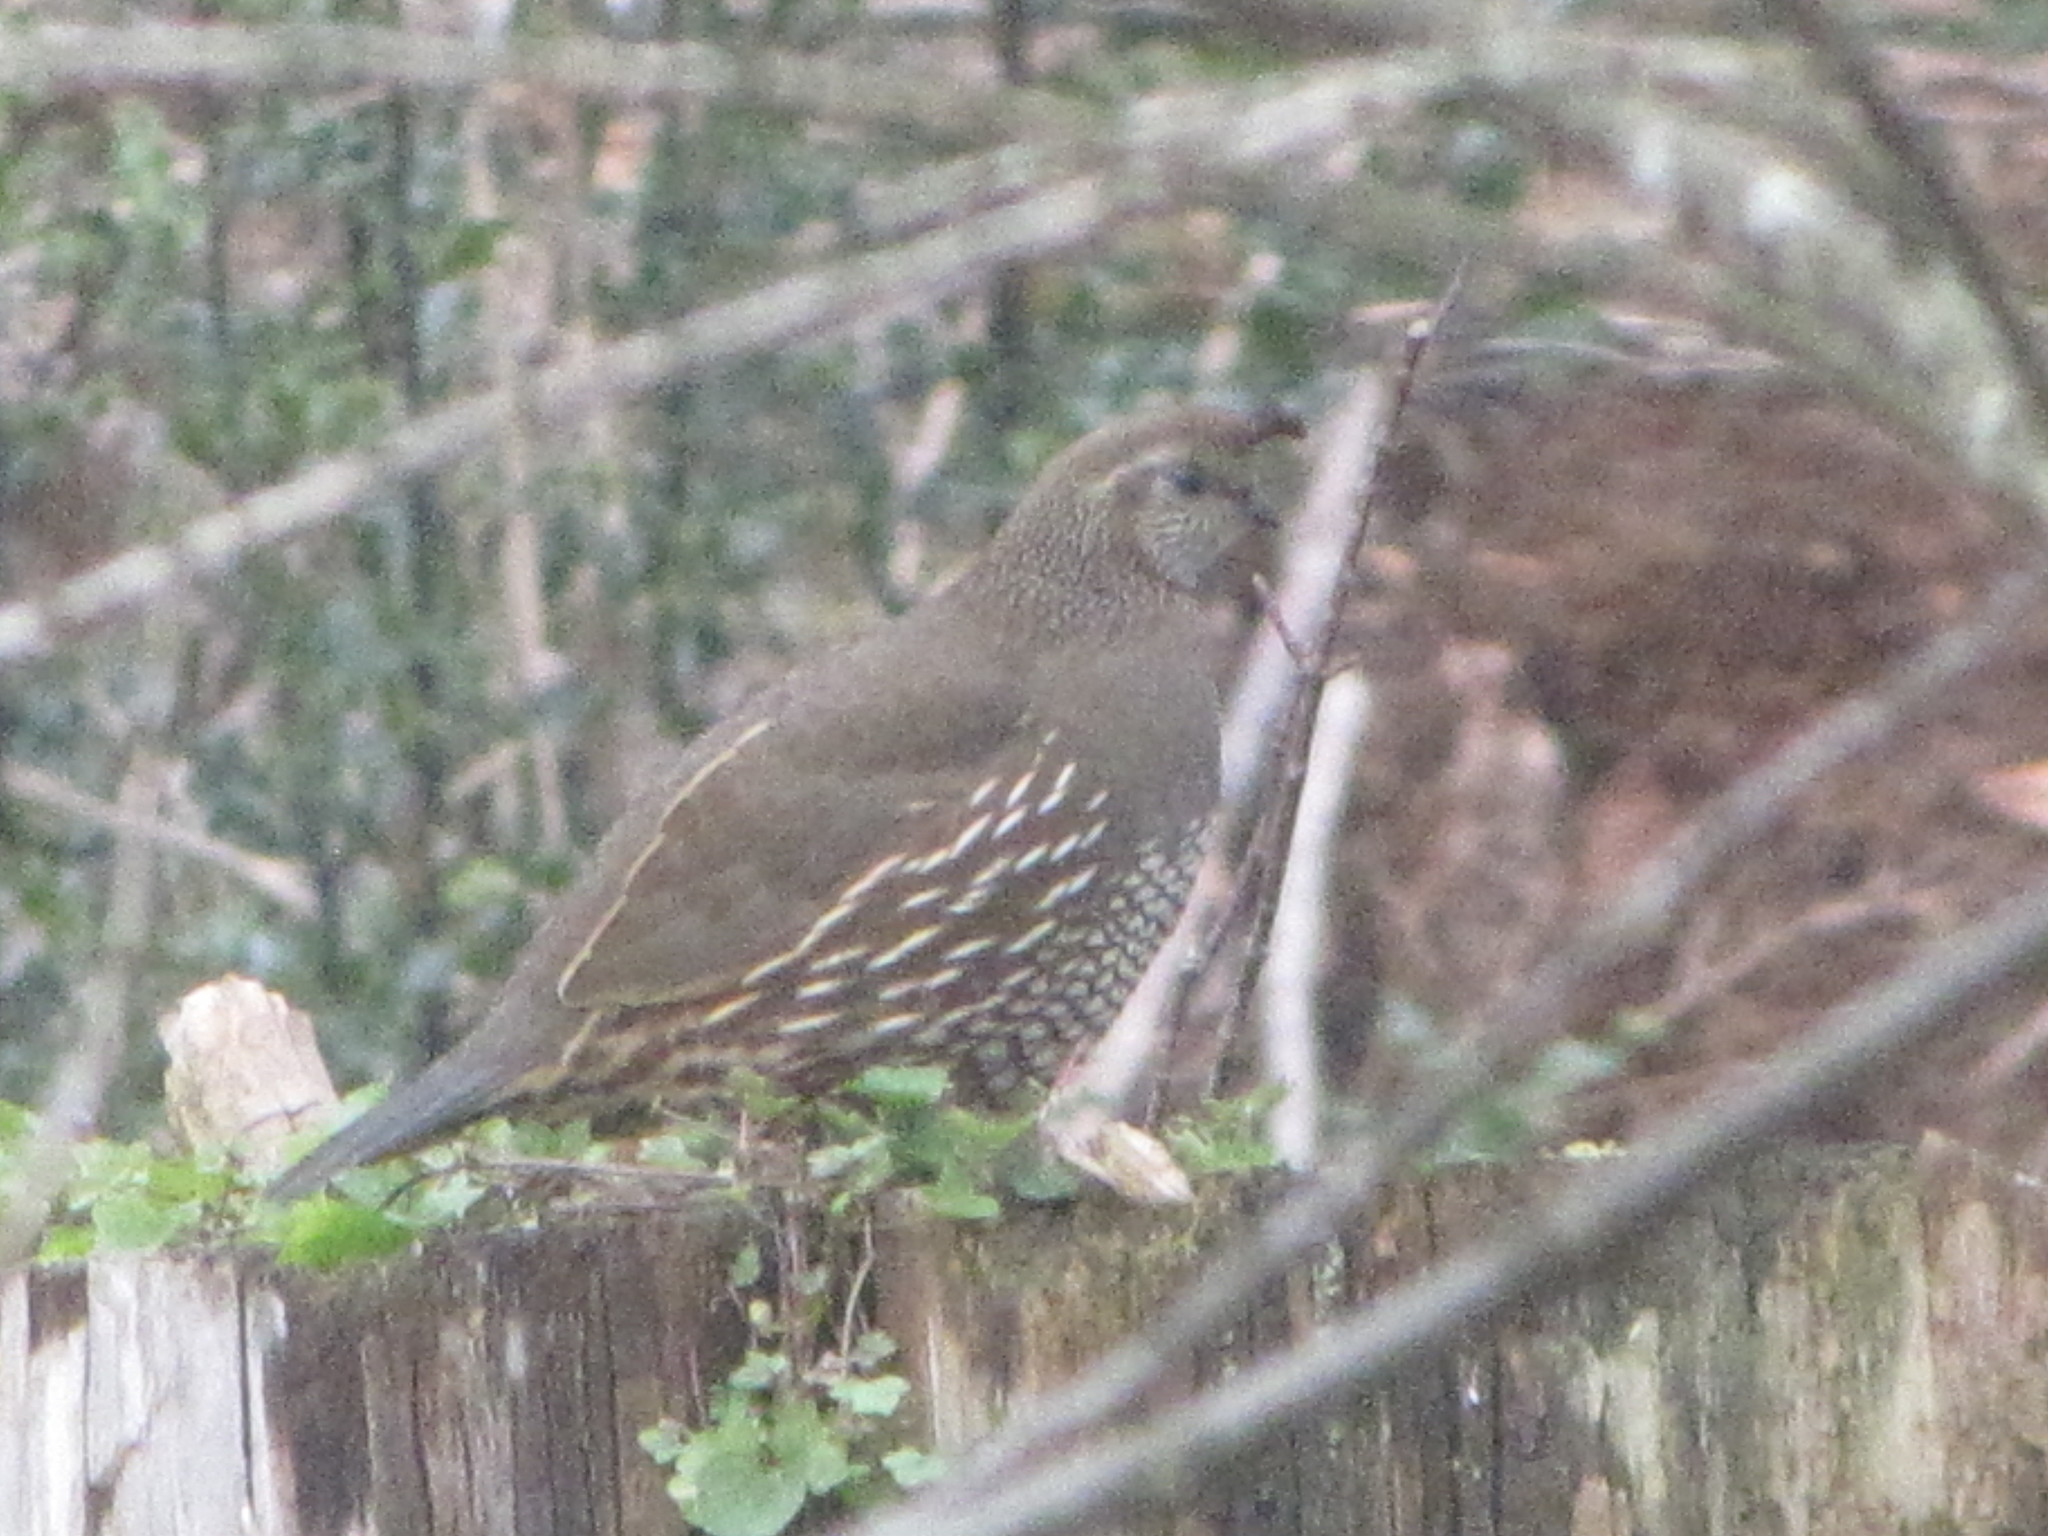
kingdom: Animalia
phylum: Chordata
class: Aves
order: Galliformes
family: Odontophoridae
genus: Callipepla
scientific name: Callipepla californica
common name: California quail
